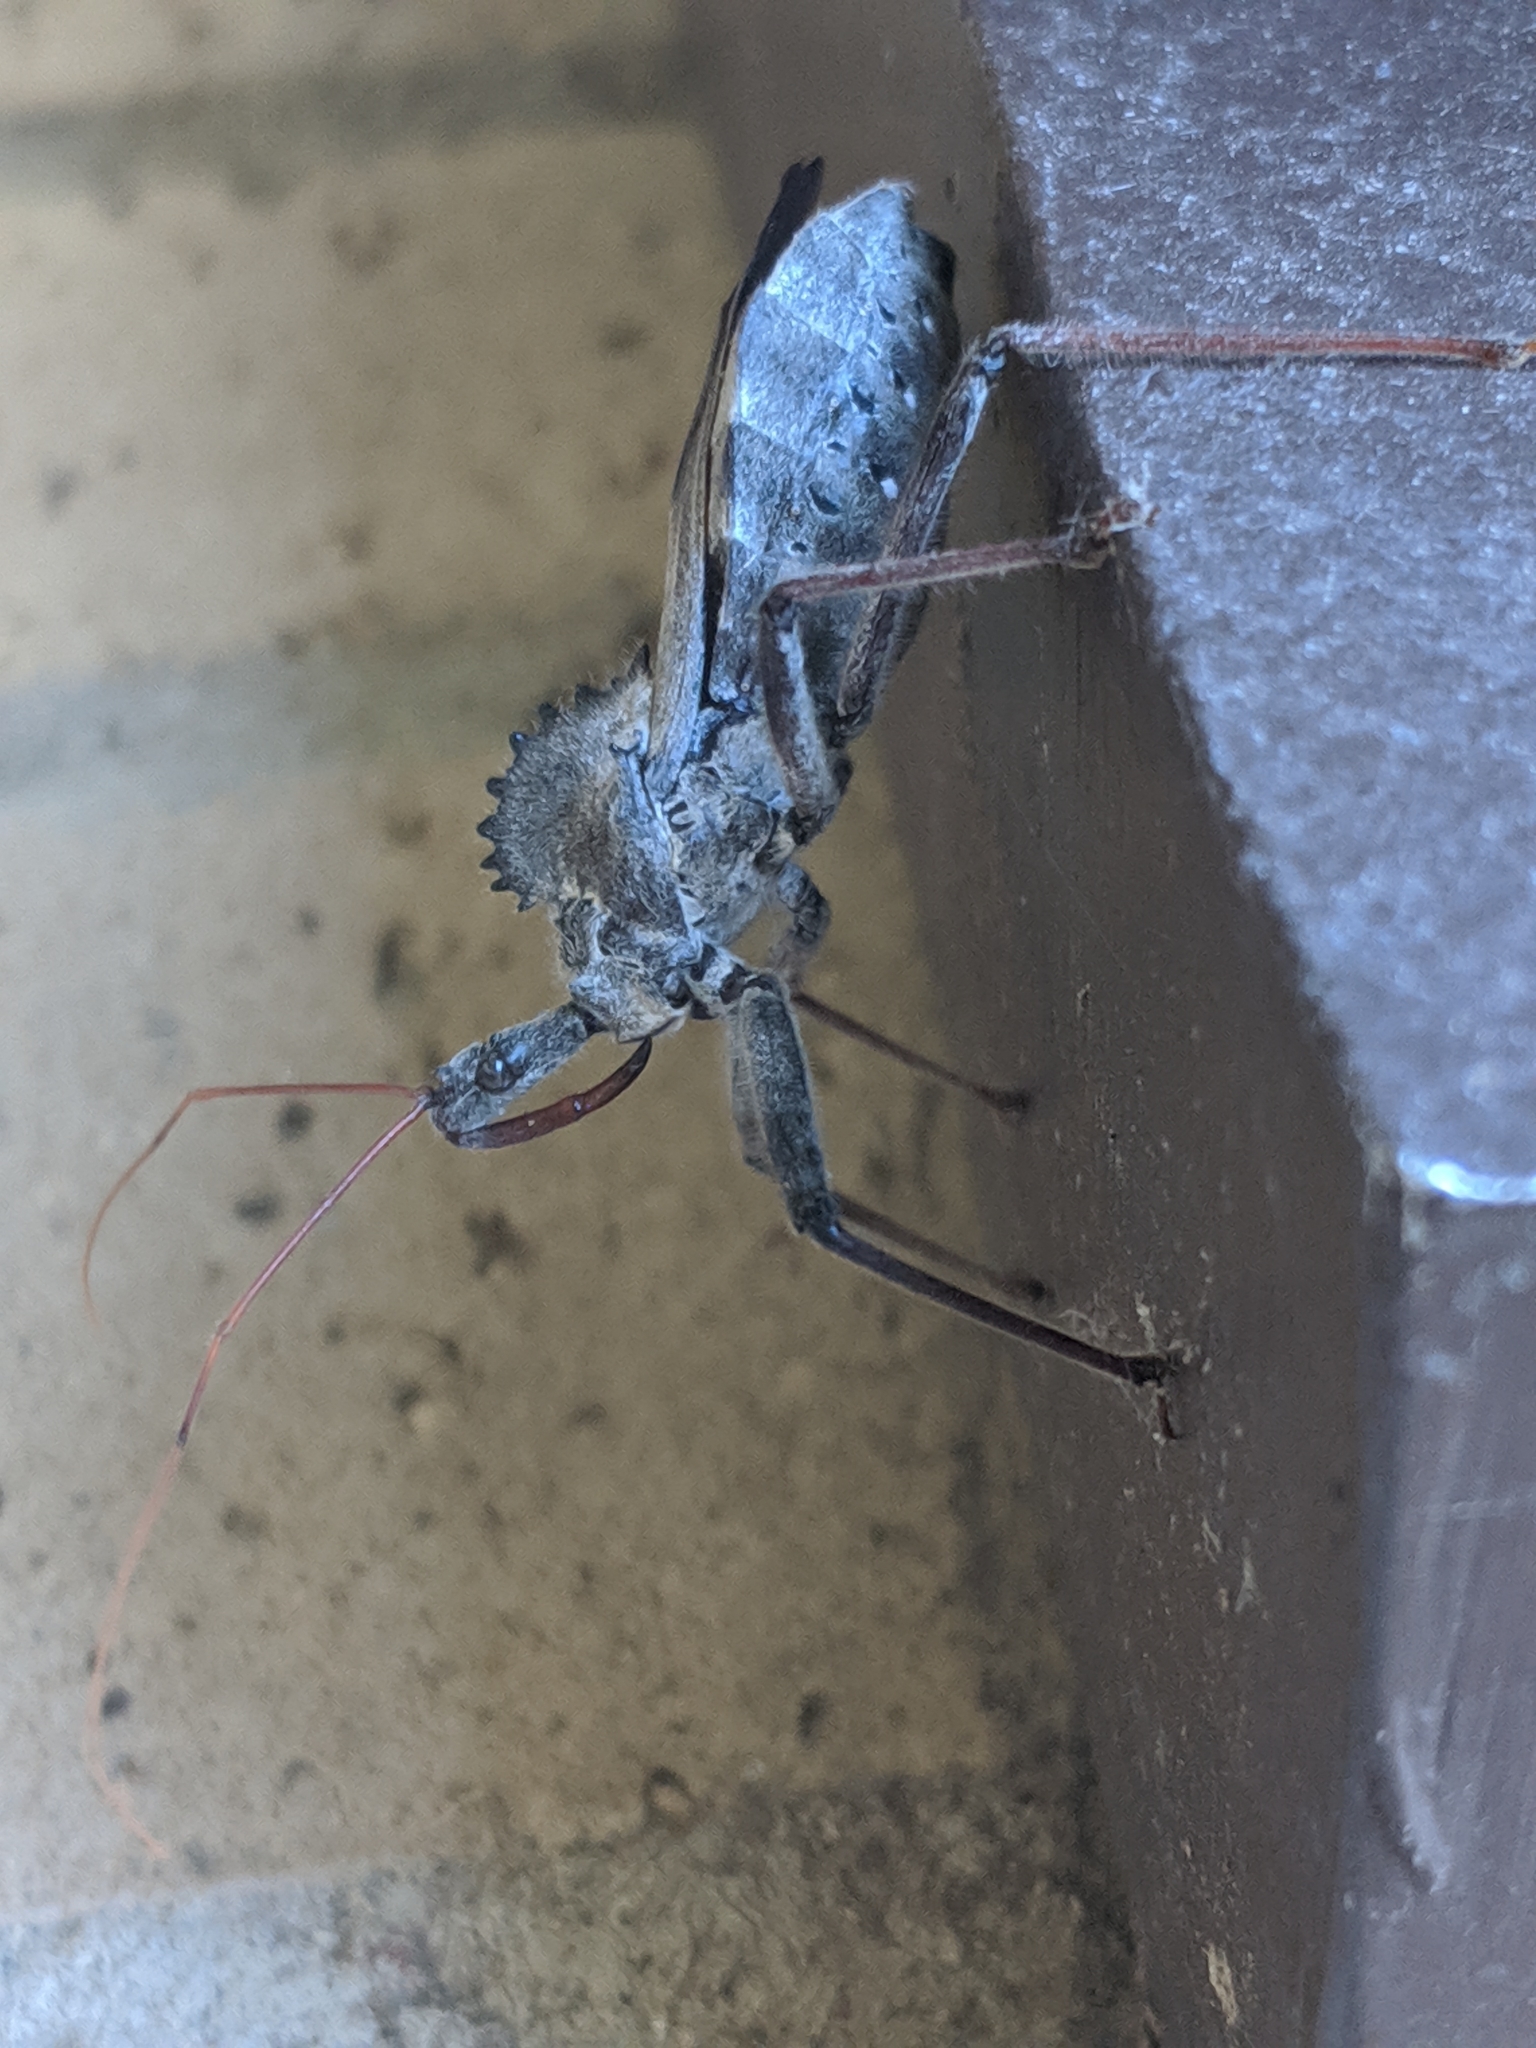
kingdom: Animalia
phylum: Arthropoda
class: Insecta
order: Hemiptera
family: Reduviidae
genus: Arilus
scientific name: Arilus cristatus
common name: North american wheel bug
